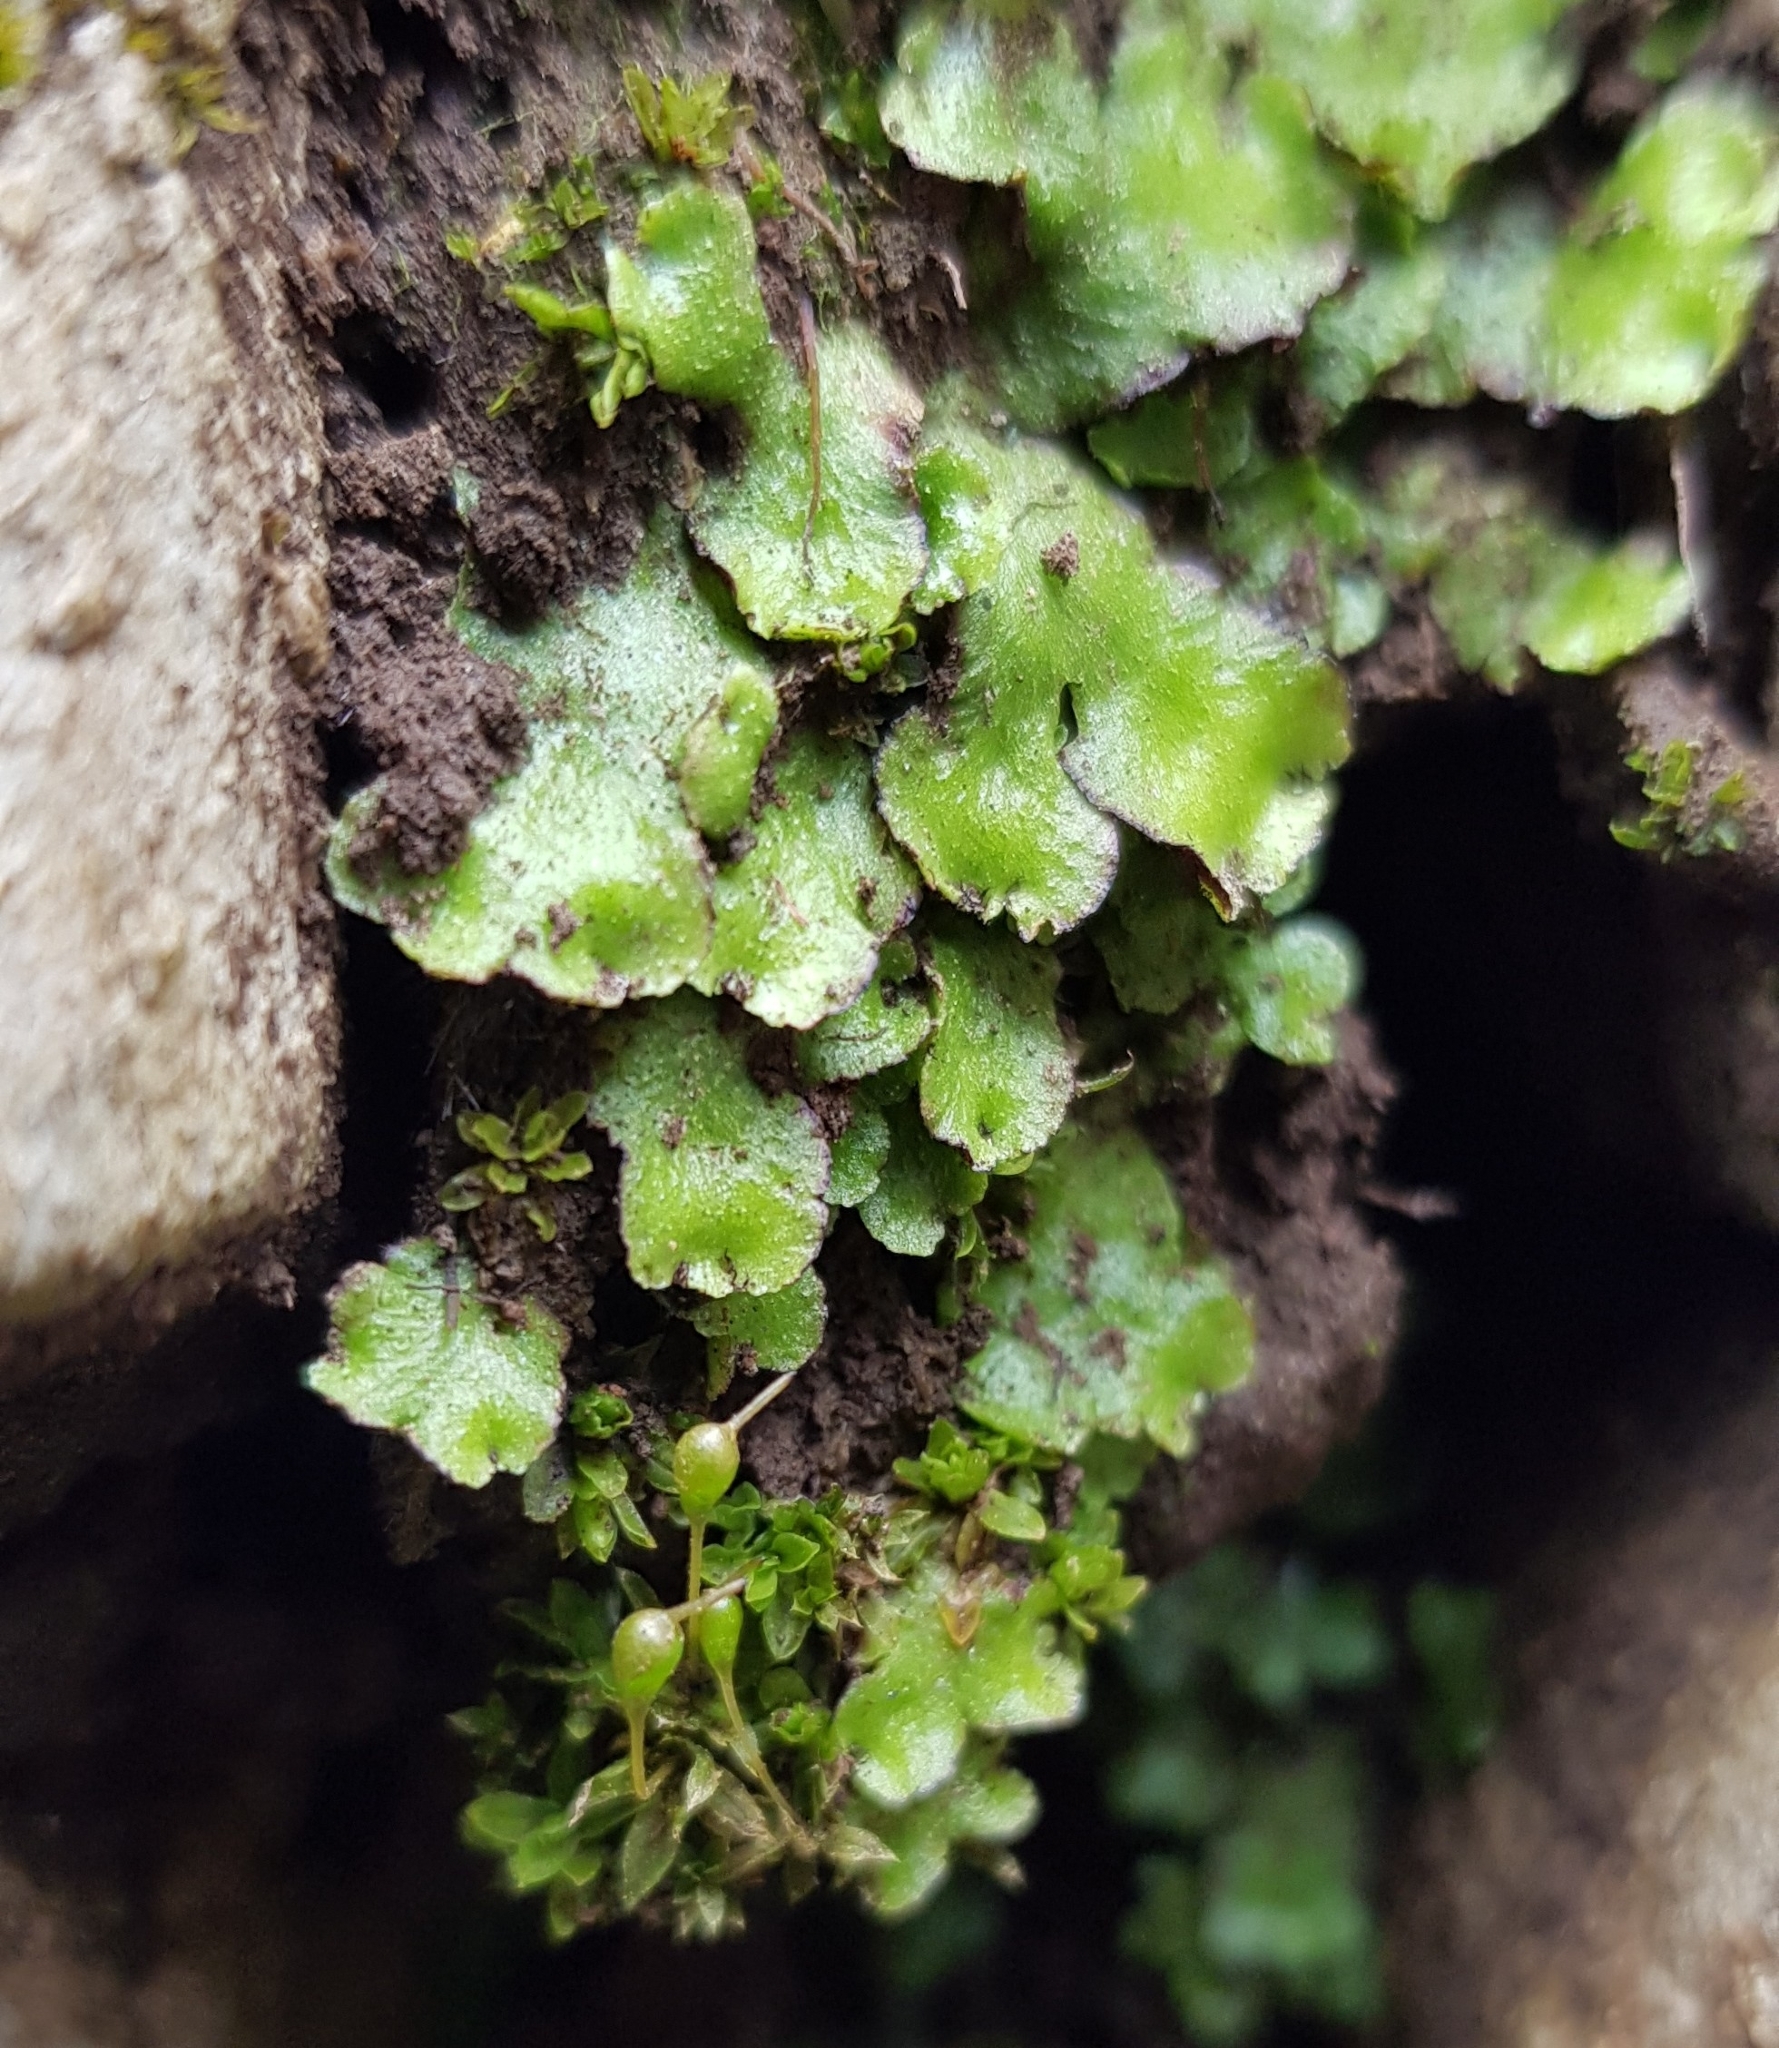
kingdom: Plantae
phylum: Marchantiophyta
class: Marchantiopsida
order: Marchantiales
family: Aytoniaceae
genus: Reboulia
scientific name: Reboulia hemisphaerica
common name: Purple-margined liverwort
